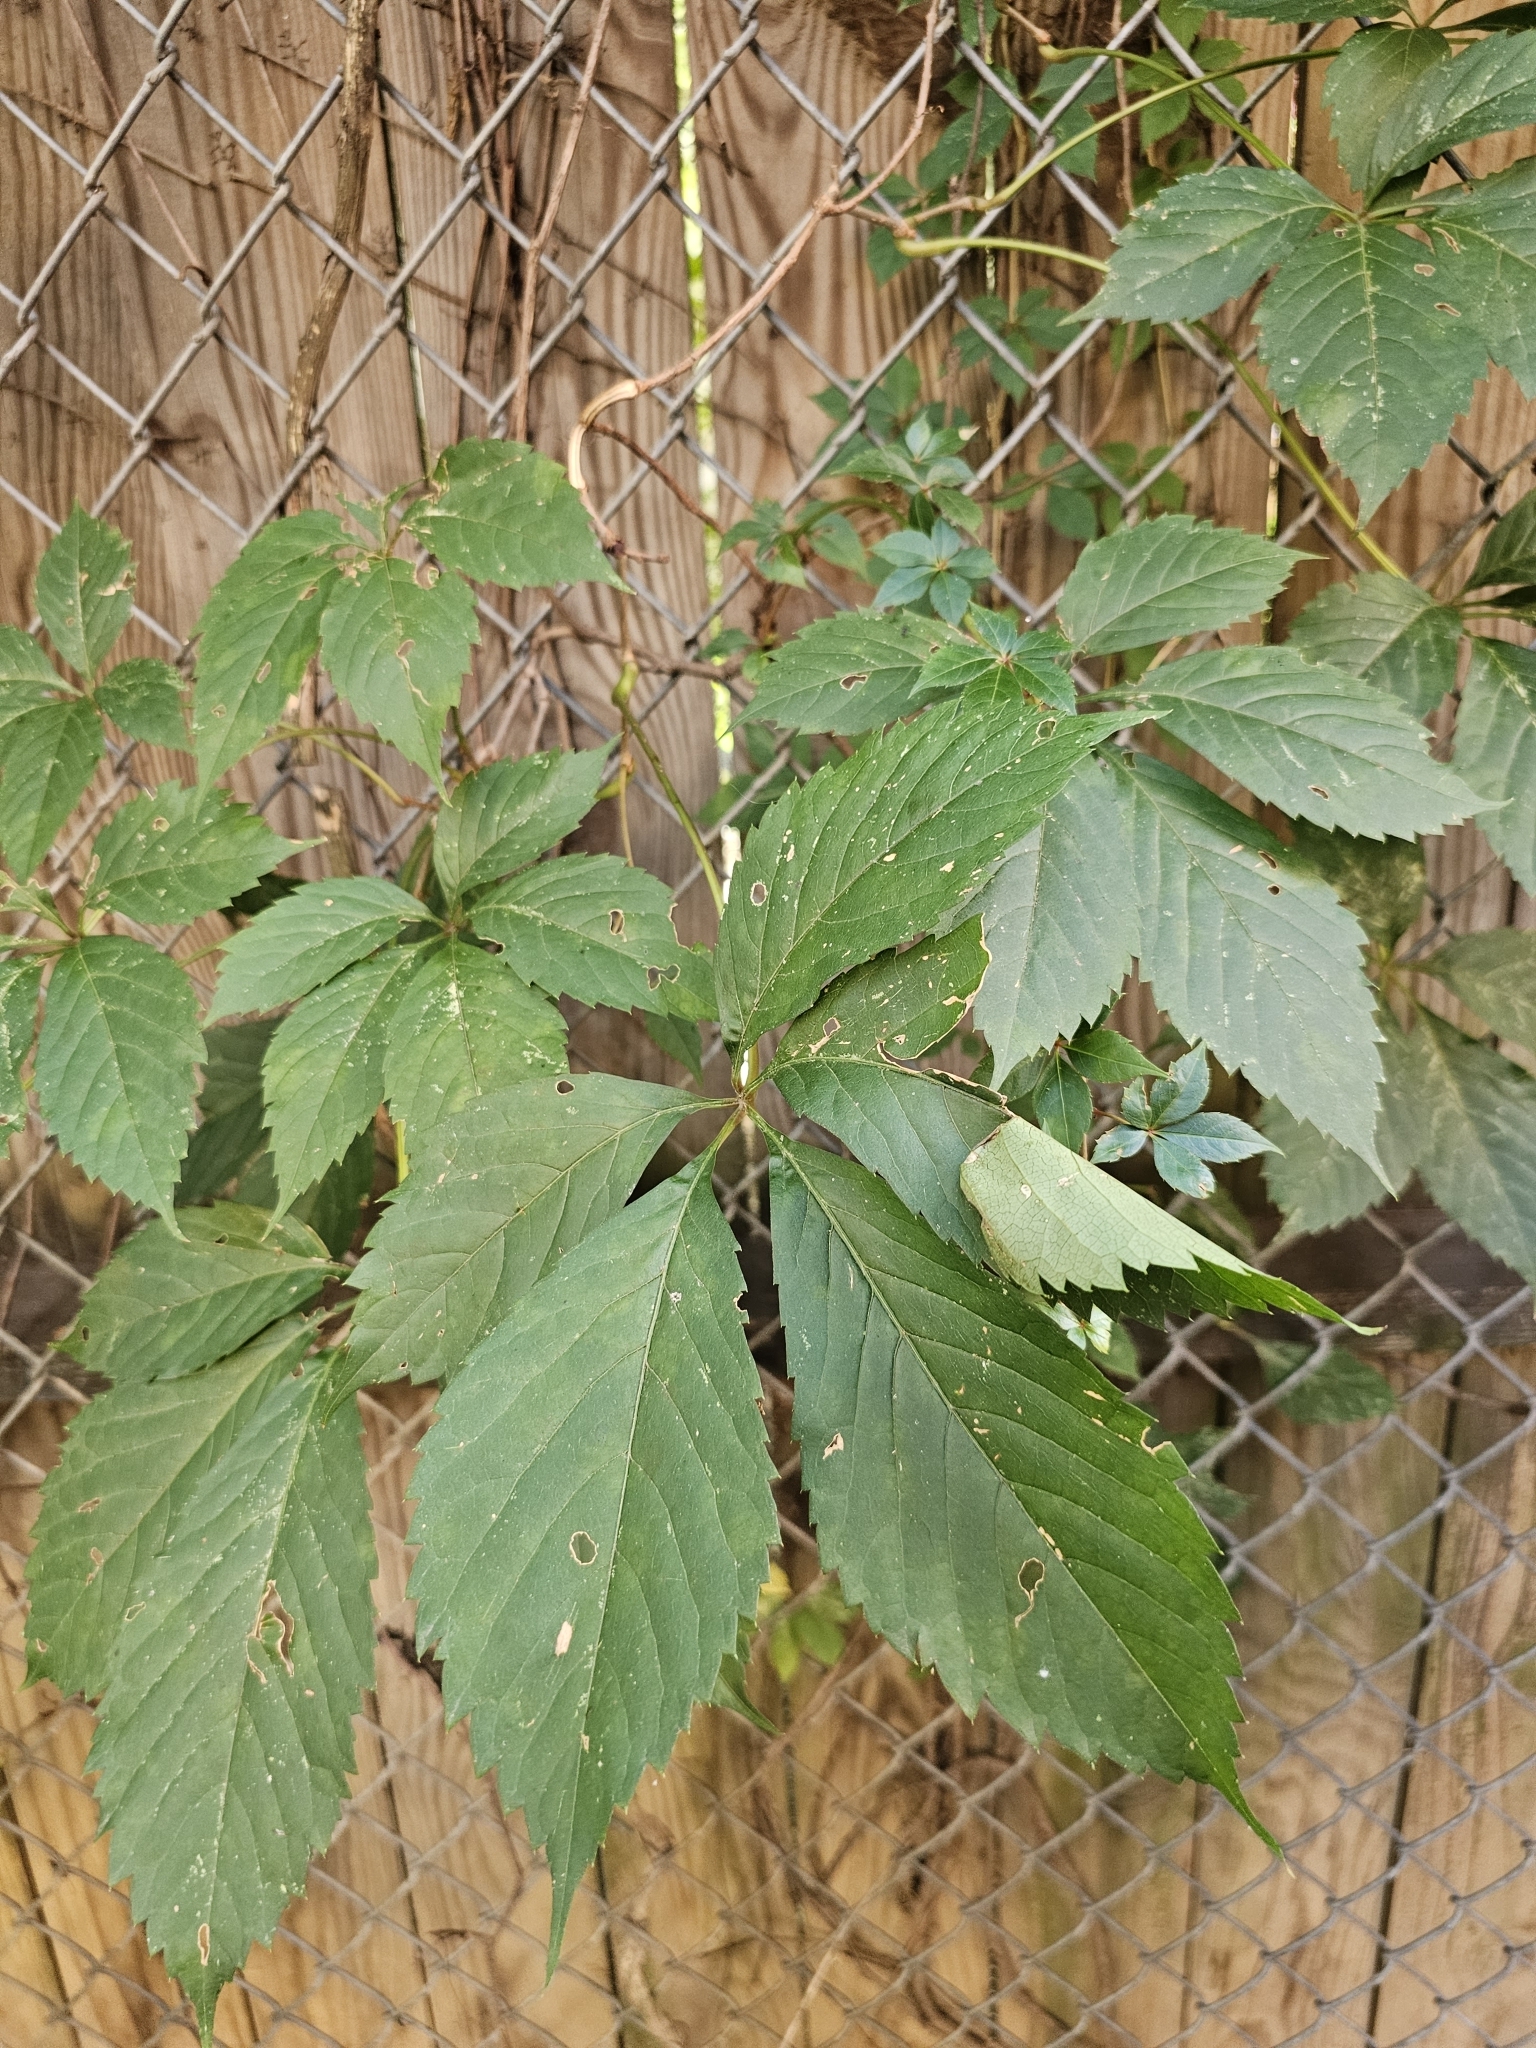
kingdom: Plantae
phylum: Tracheophyta
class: Magnoliopsida
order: Vitales
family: Vitaceae
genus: Parthenocissus
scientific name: Parthenocissus quinquefolia
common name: Virginia-creeper
